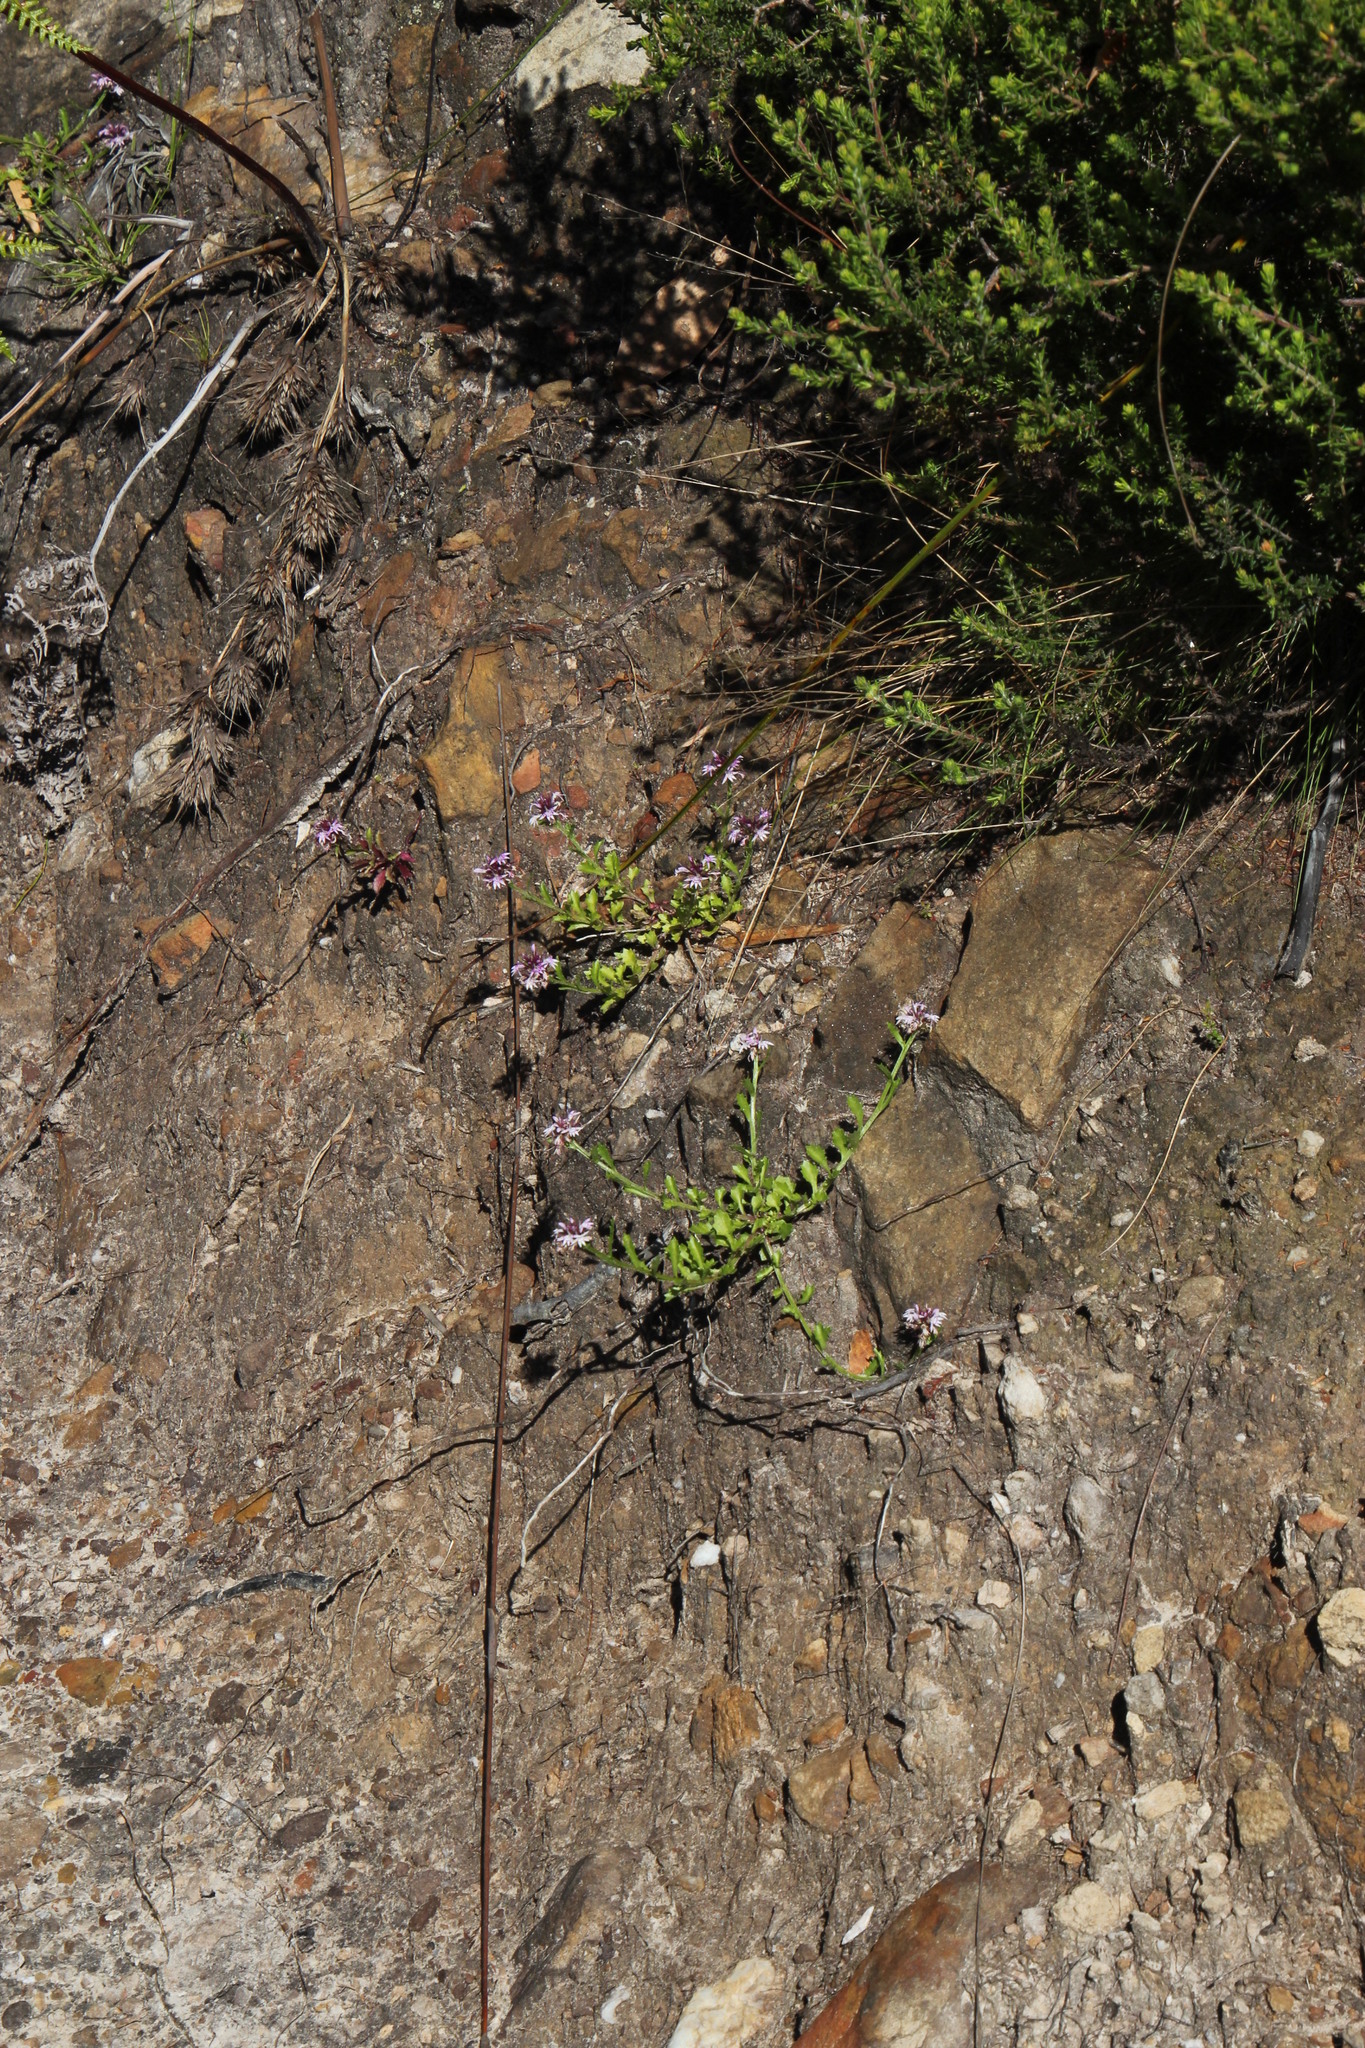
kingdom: Plantae
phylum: Tracheophyta
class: Magnoliopsida
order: Asterales
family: Campanulaceae
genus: Lobelia
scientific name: Lobelia jasionoides
